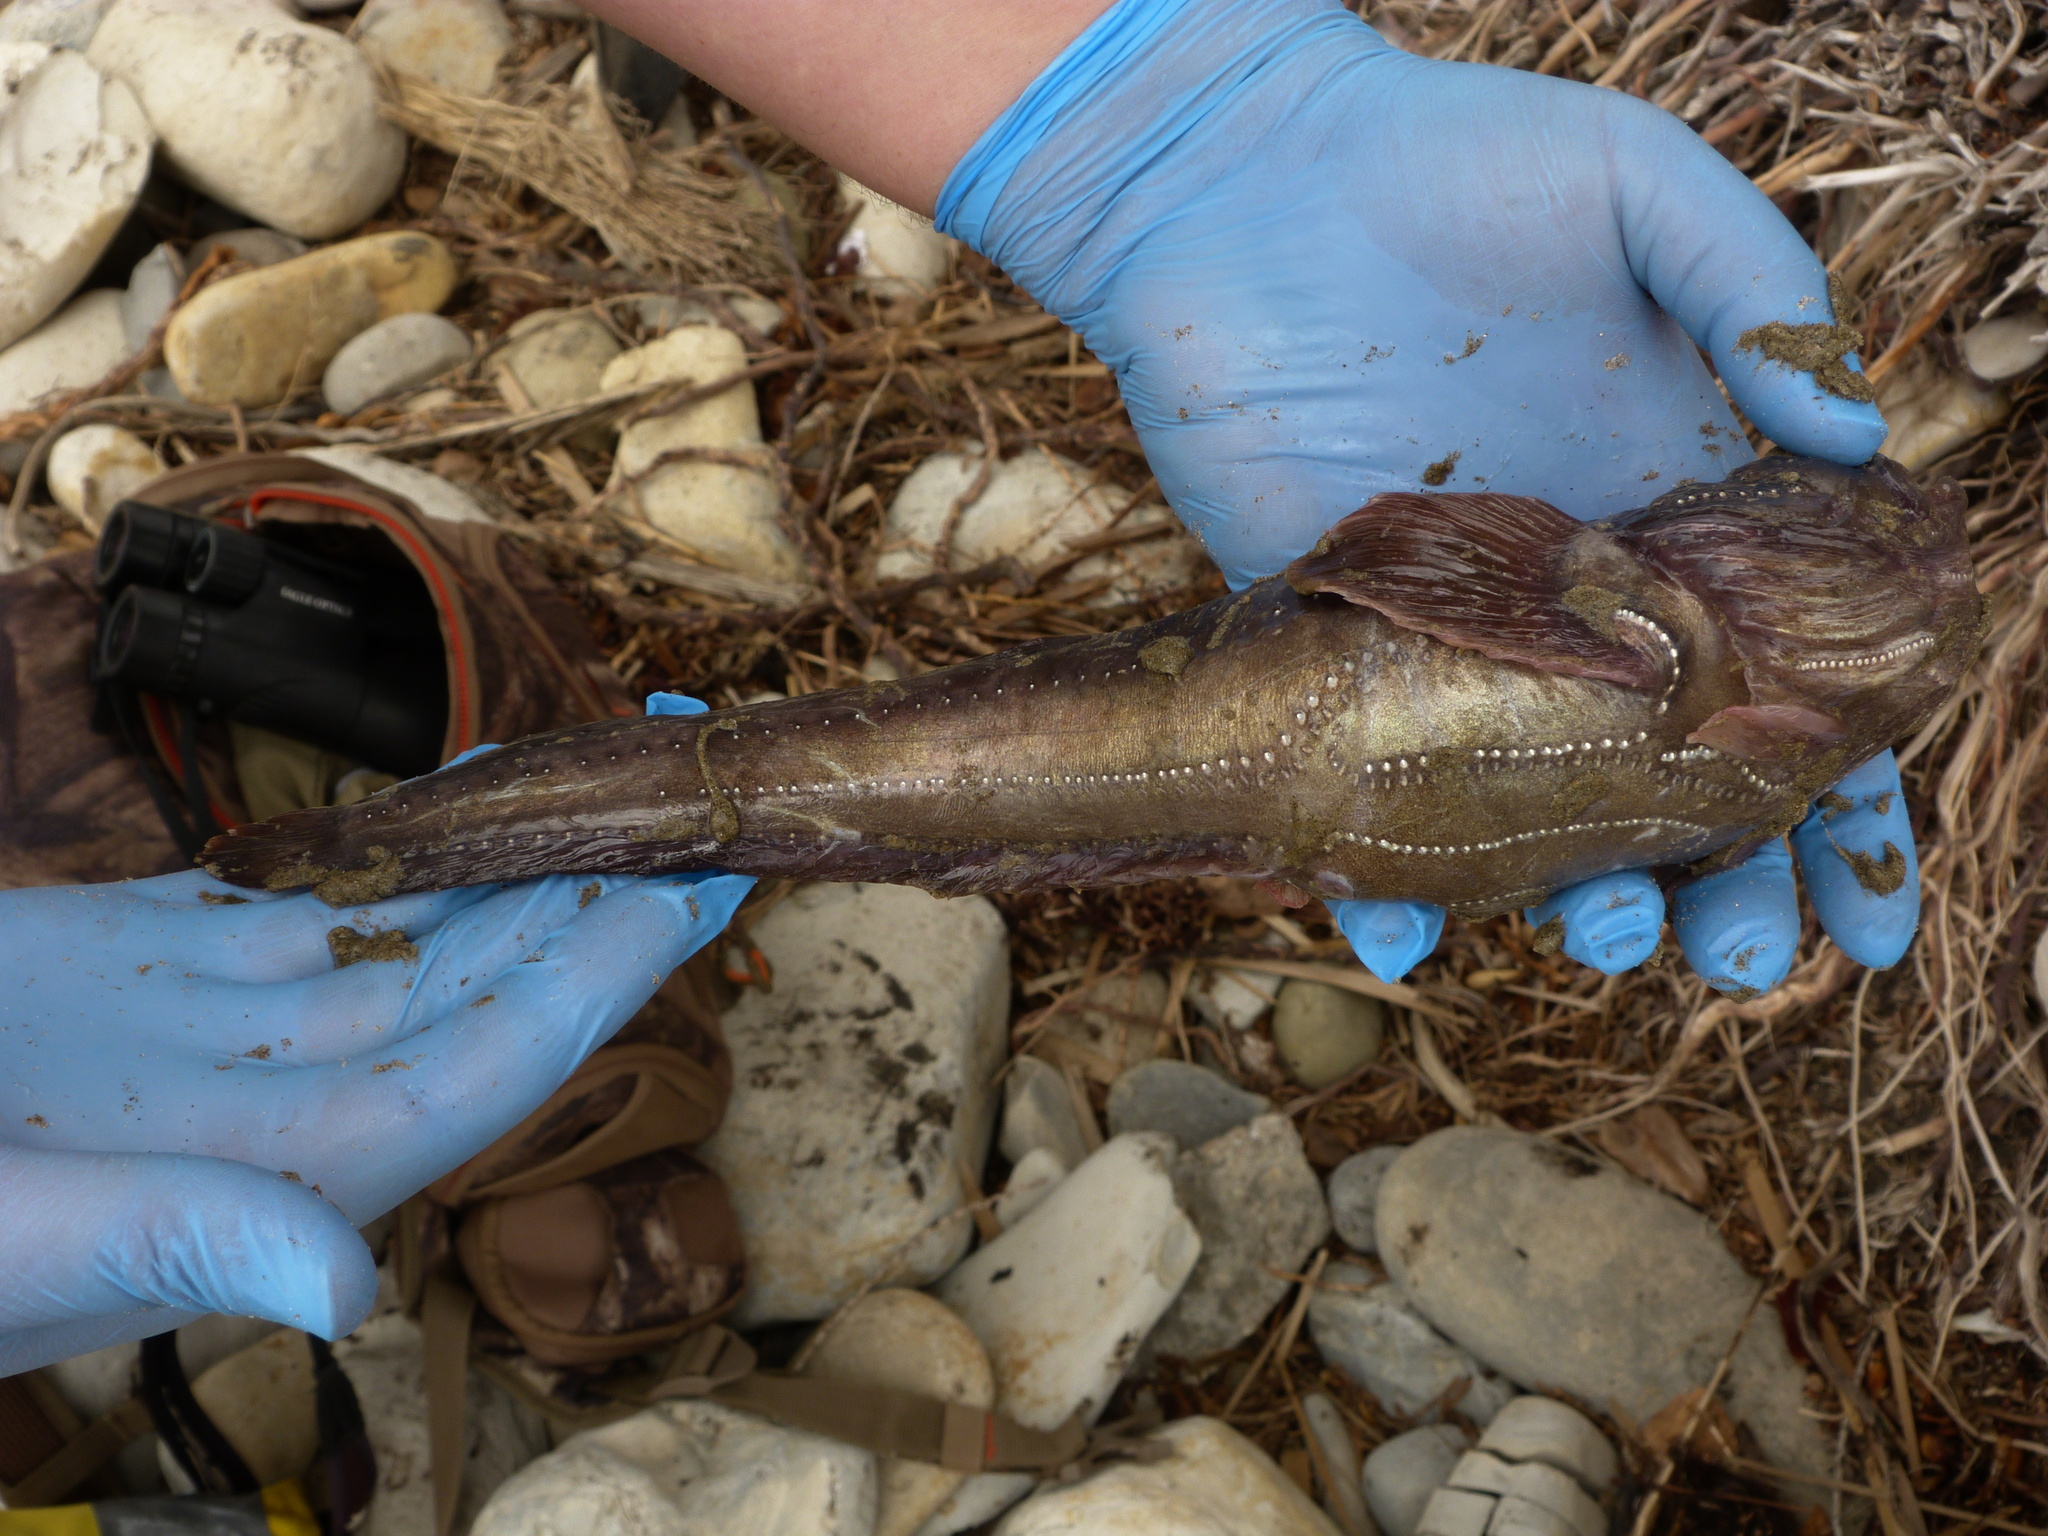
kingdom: Animalia
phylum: Chordata
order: Batrachoidiformes
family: Batrachoididae
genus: Porichthys
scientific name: Porichthys notatus
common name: Plainfin midshipman
